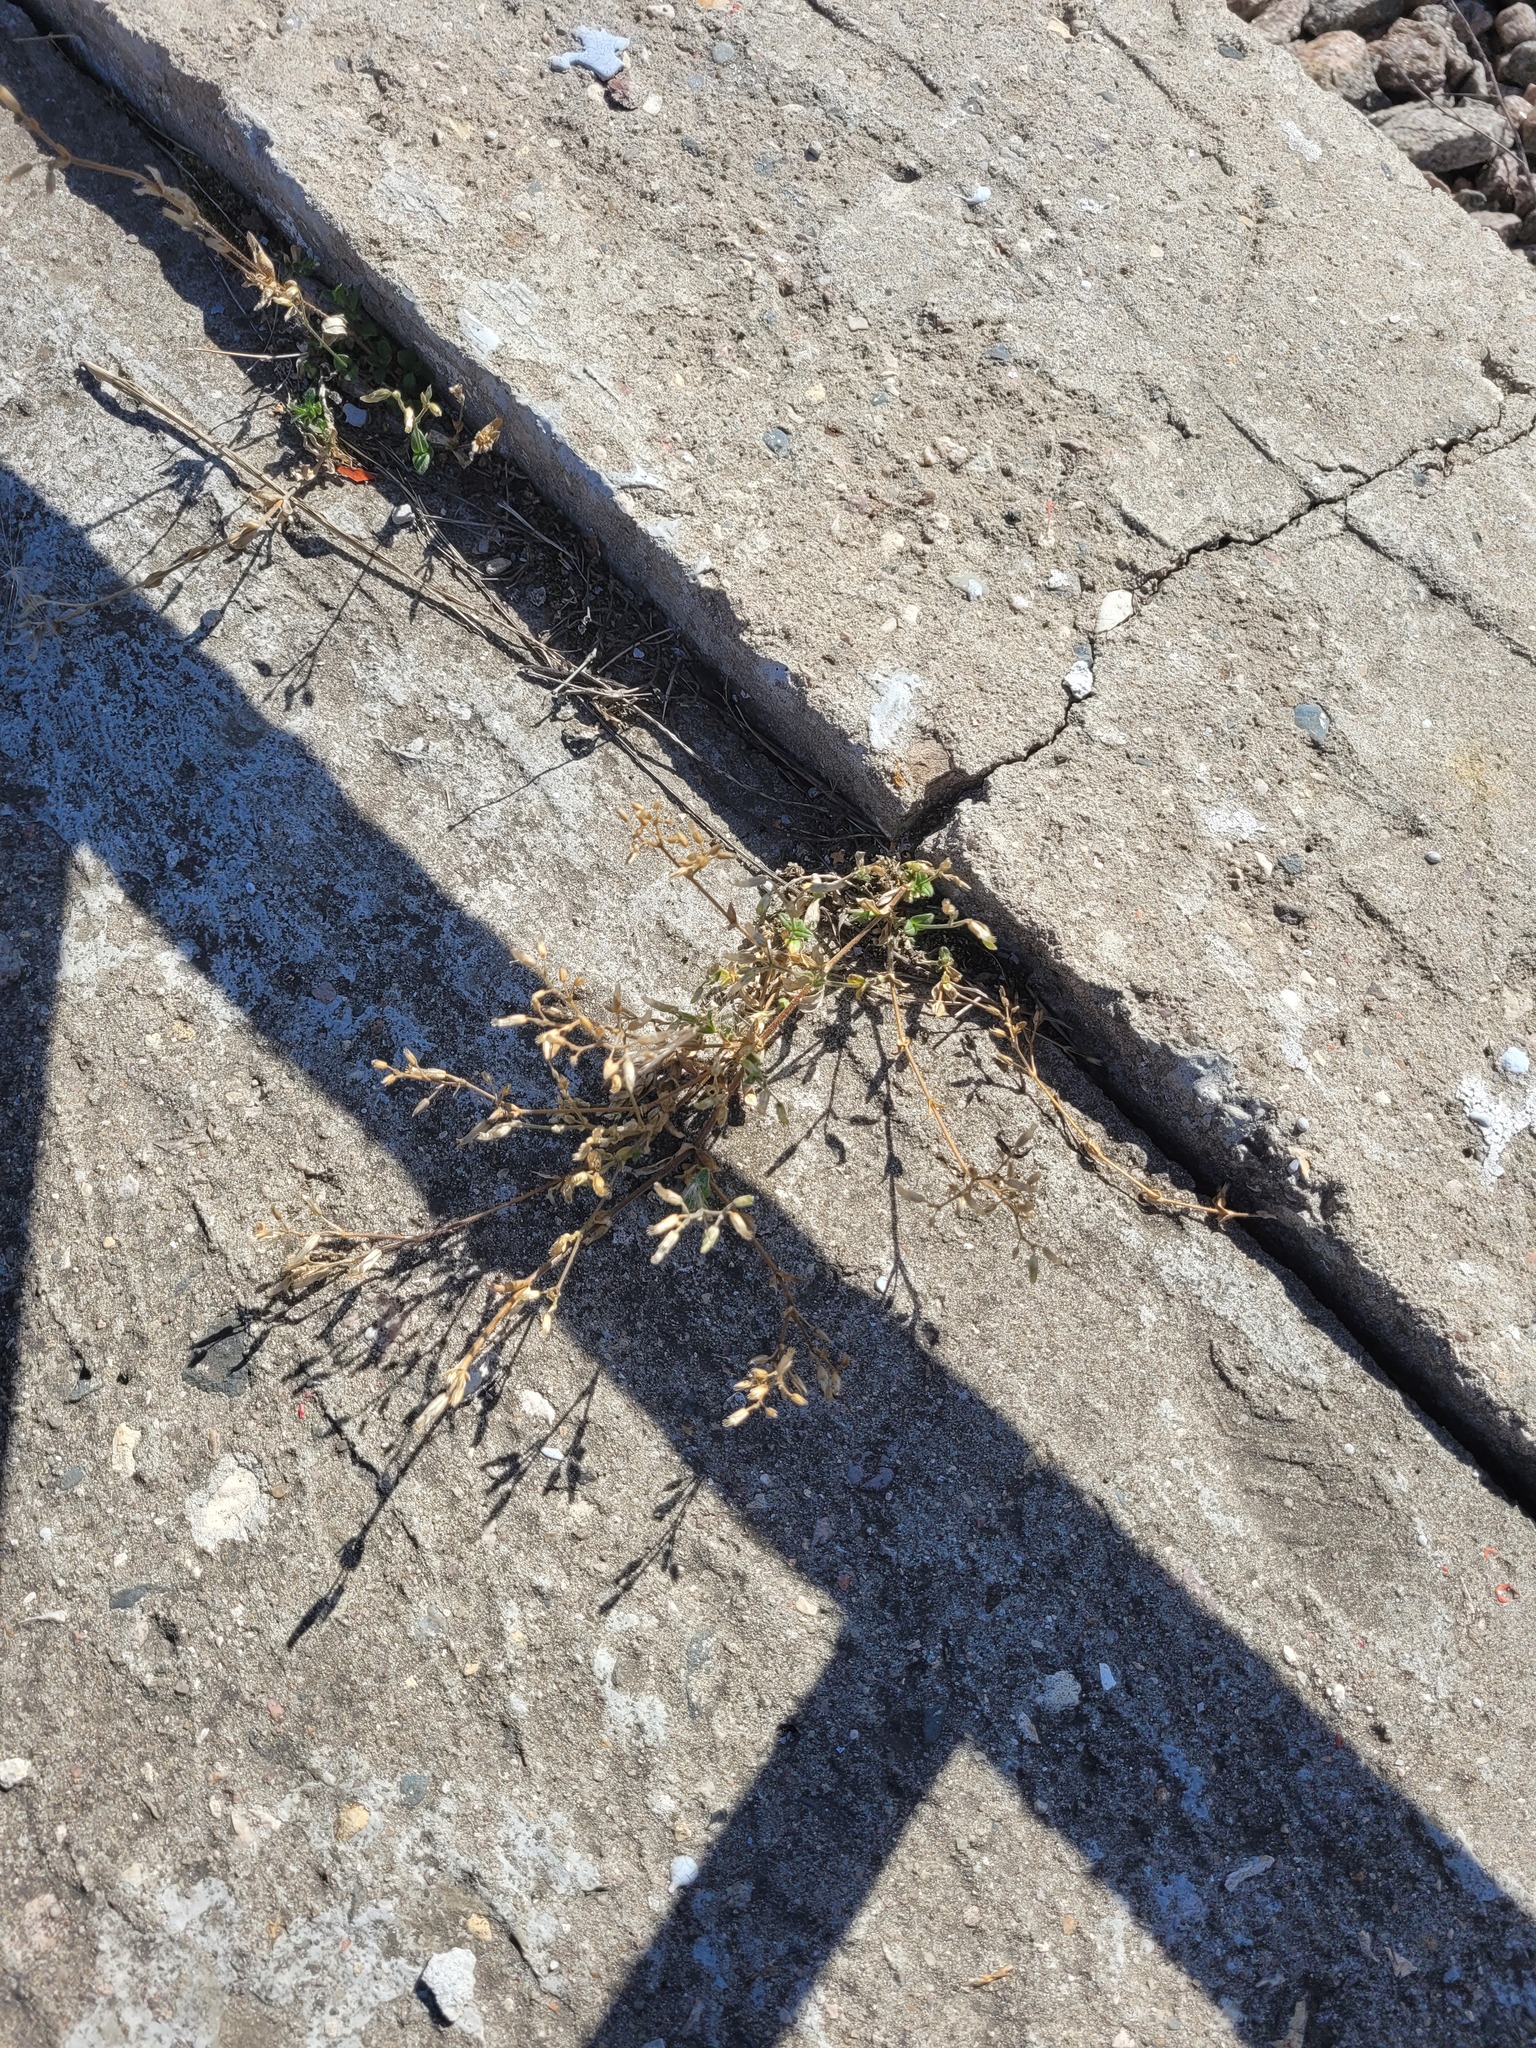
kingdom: Plantae
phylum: Tracheophyta
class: Magnoliopsida
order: Caryophyllales
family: Caryophyllaceae
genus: Cerastium
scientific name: Cerastium holosteoides
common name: Big chickweed
